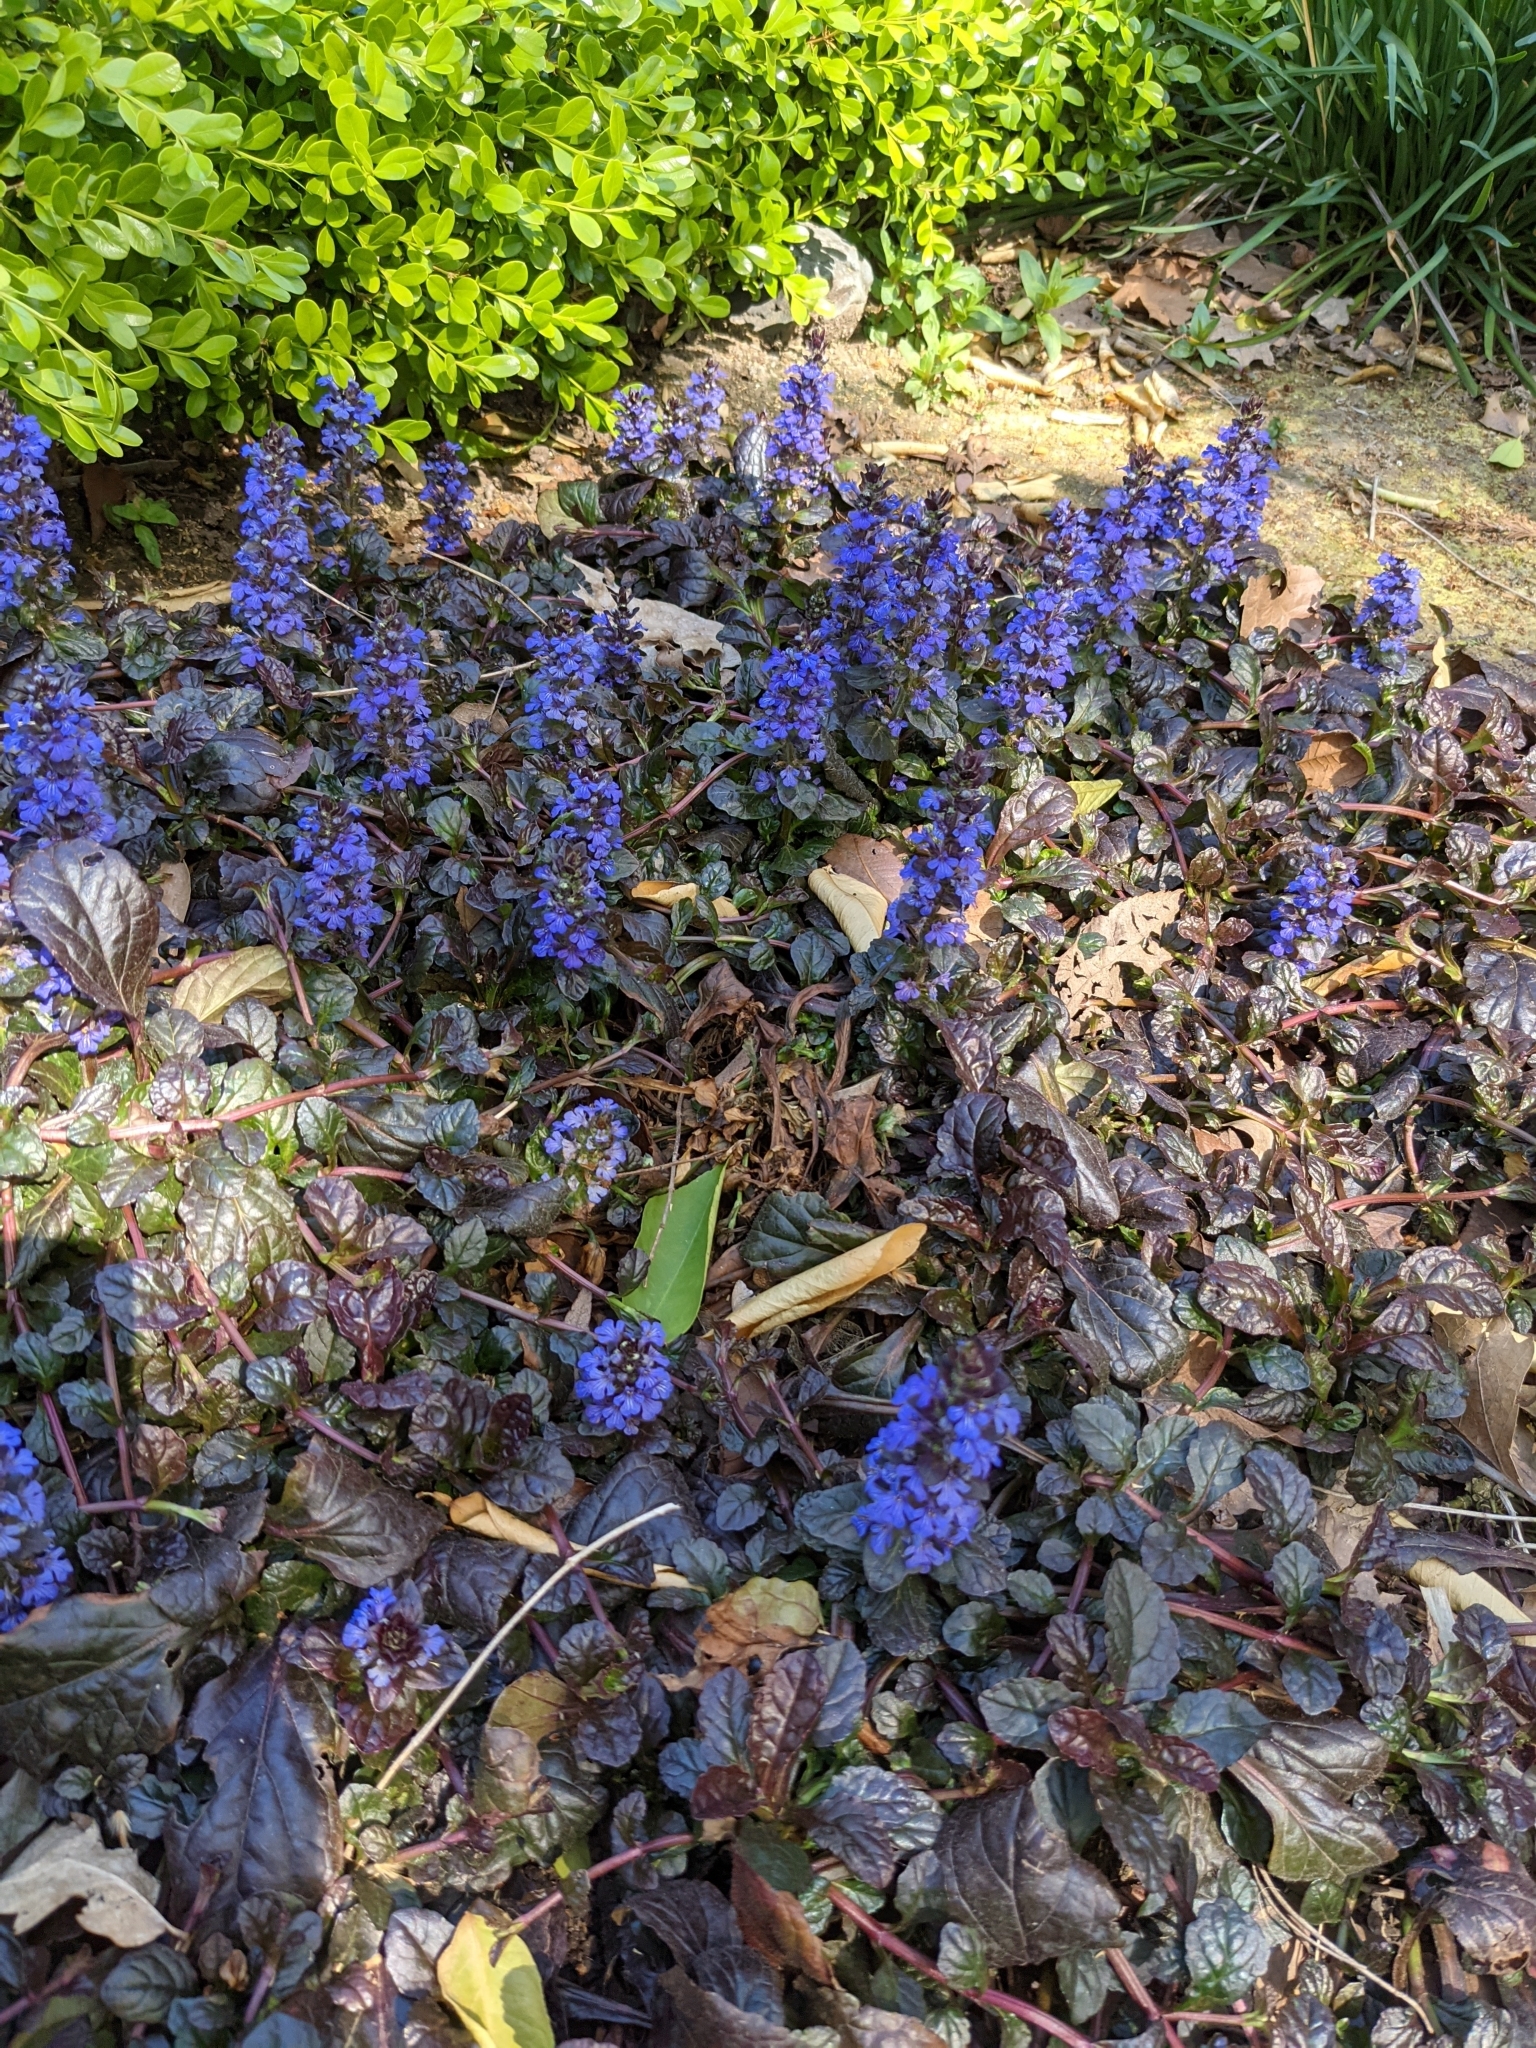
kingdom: Plantae
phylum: Tracheophyta
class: Magnoliopsida
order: Lamiales
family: Lamiaceae
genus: Ajuga
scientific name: Ajuga reptans
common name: Bugle
